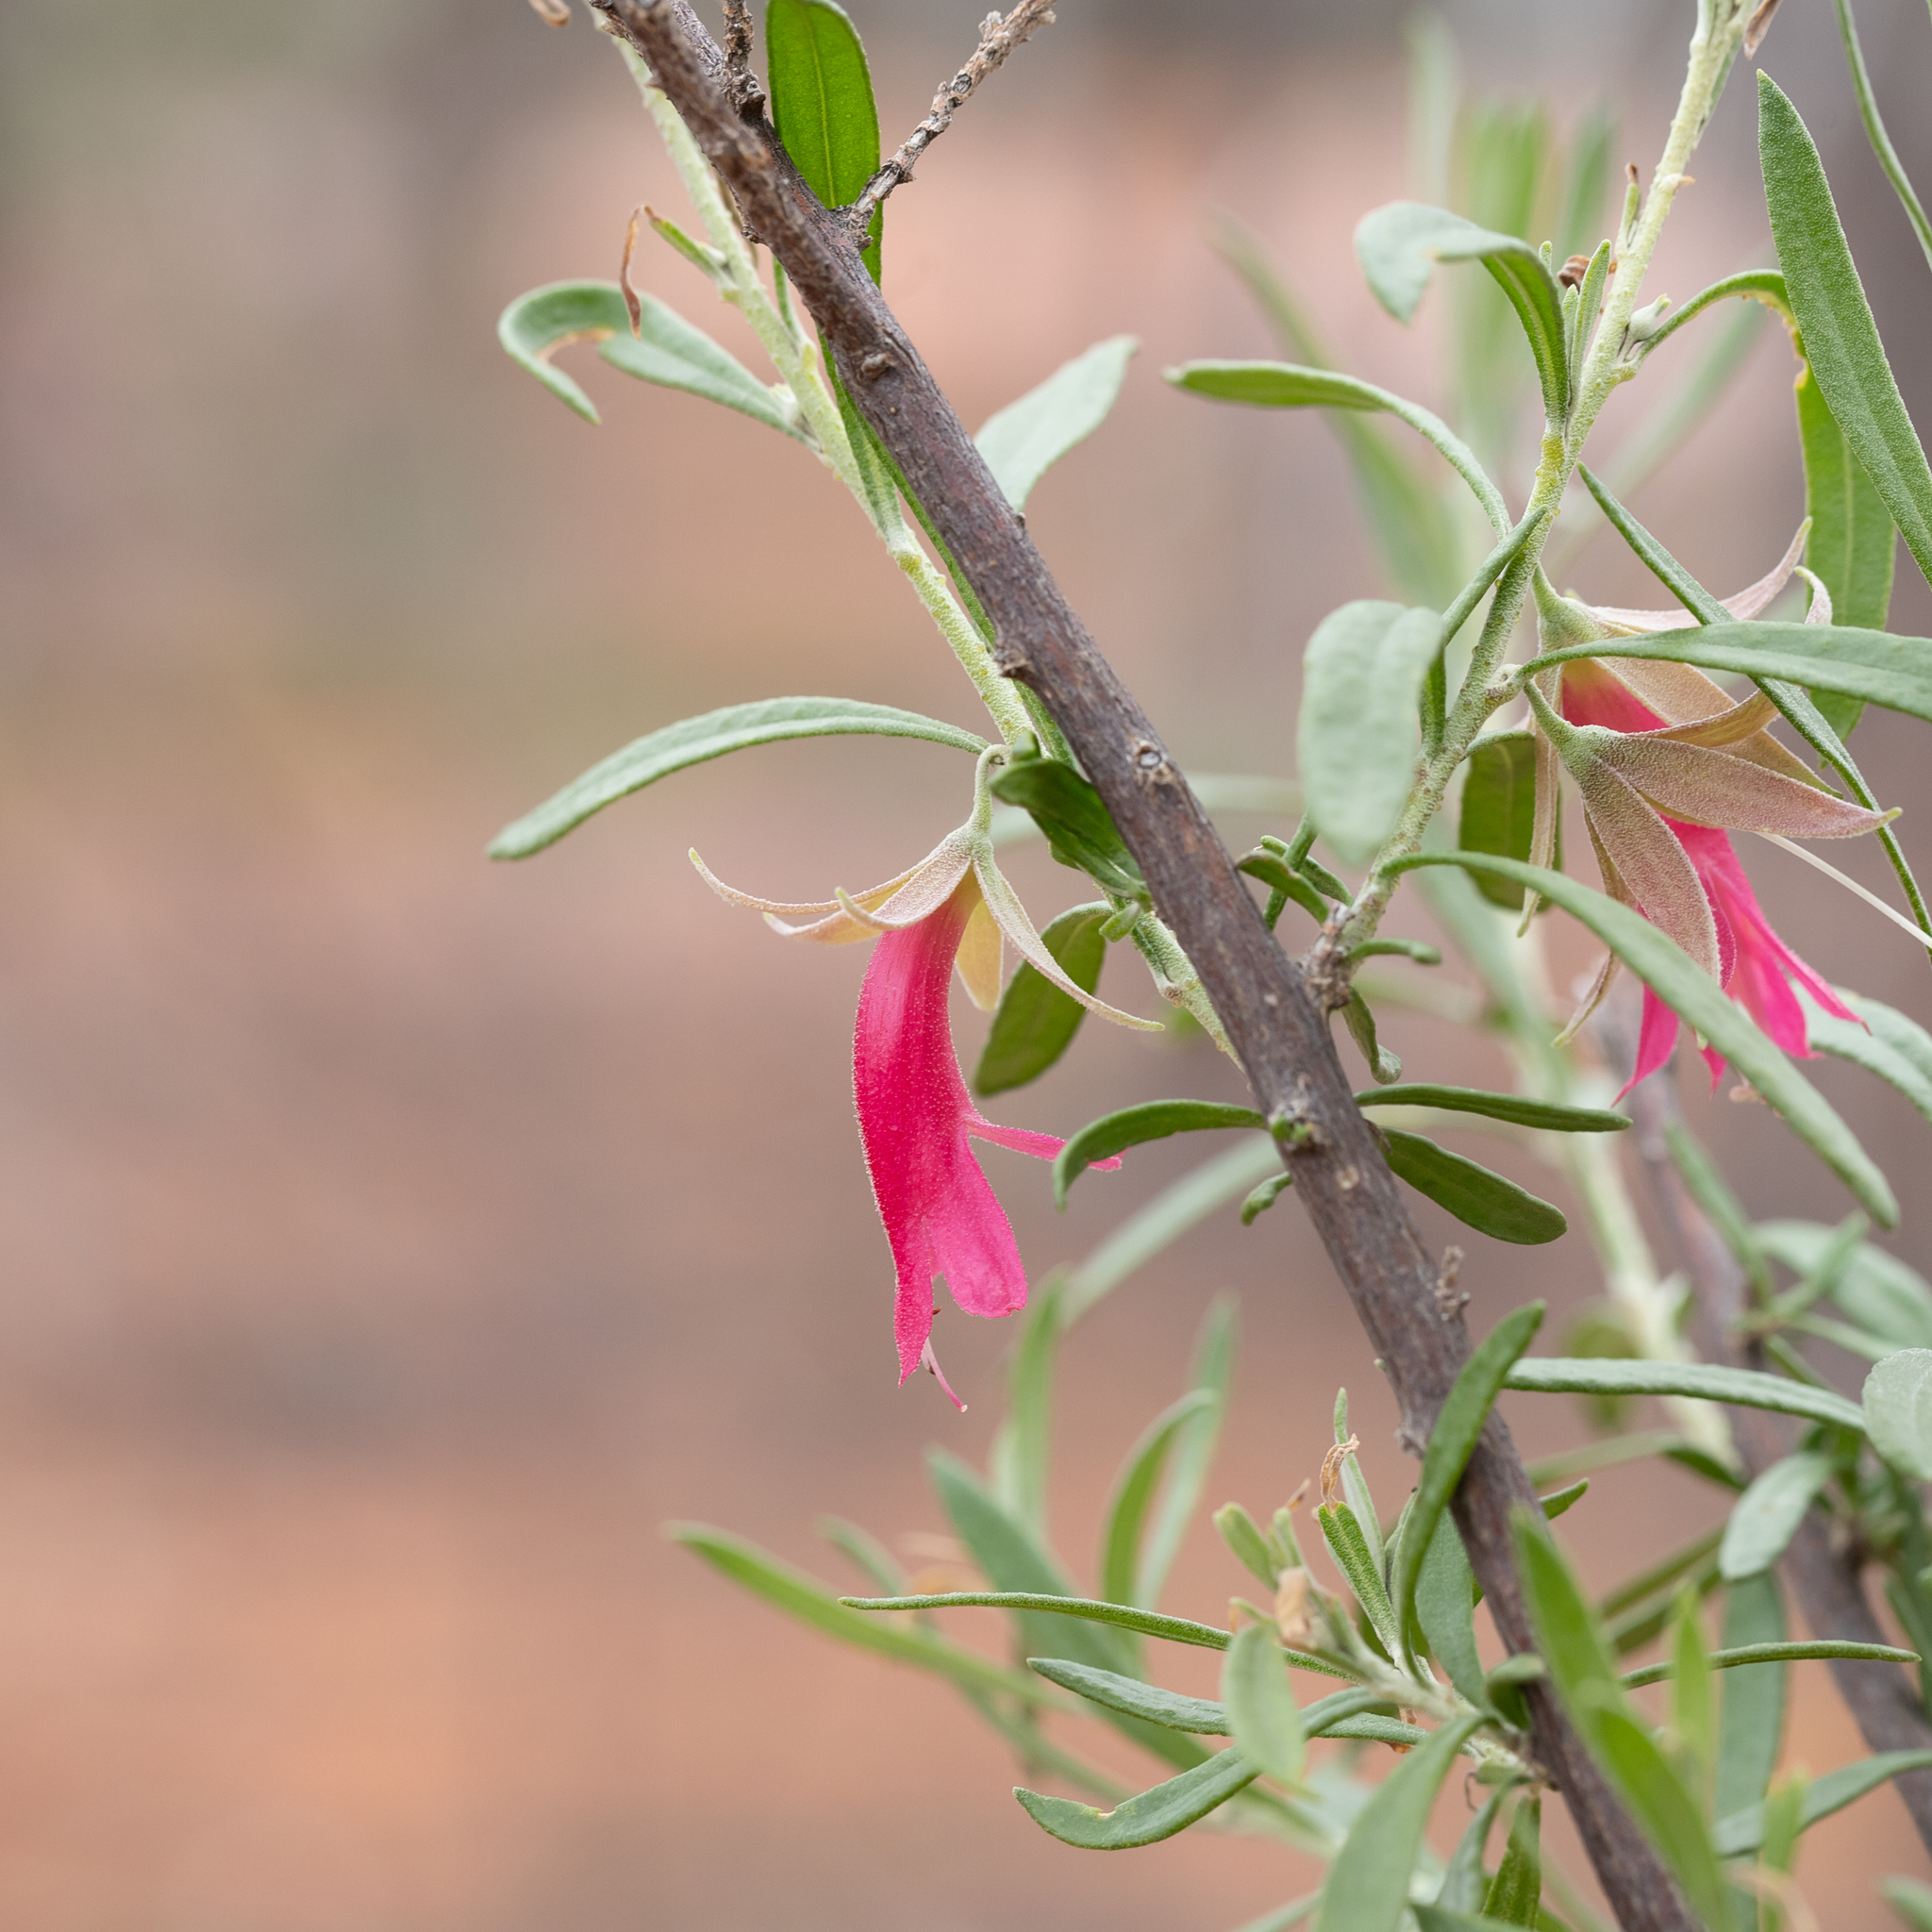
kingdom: Plantae
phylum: Tracheophyta
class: Magnoliopsida
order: Lamiales
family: Scrophulariaceae
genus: Eremophila
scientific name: Eremophila latrobei
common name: Crimson turkeybush
